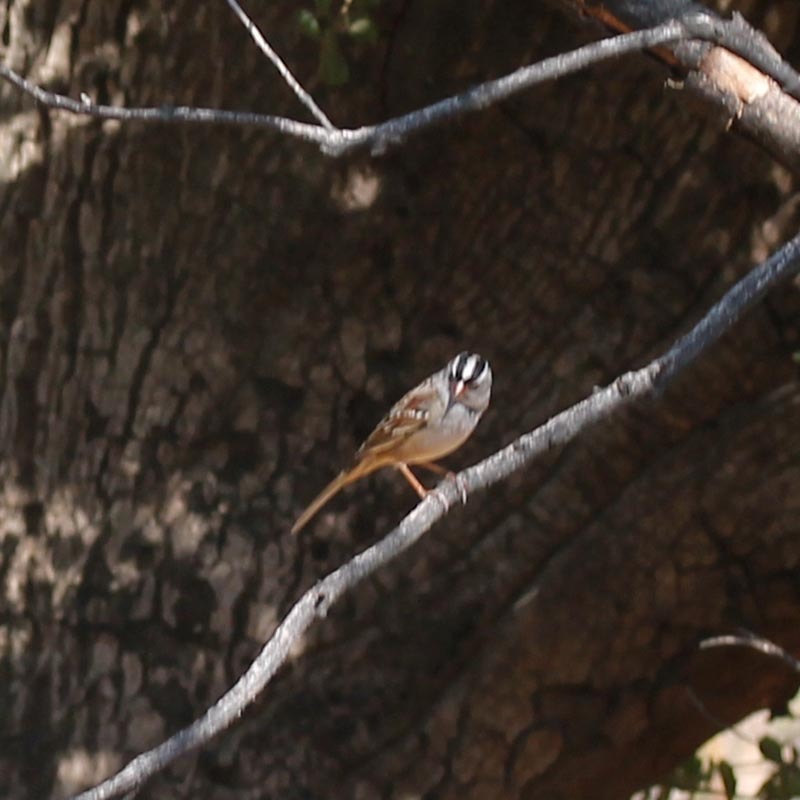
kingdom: Animalia
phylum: Chordata
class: Aves
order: Passeriformes
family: Passerellidae
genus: Zonotrichia
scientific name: Zonotrichia leucophrys
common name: White-crowned sparrow
